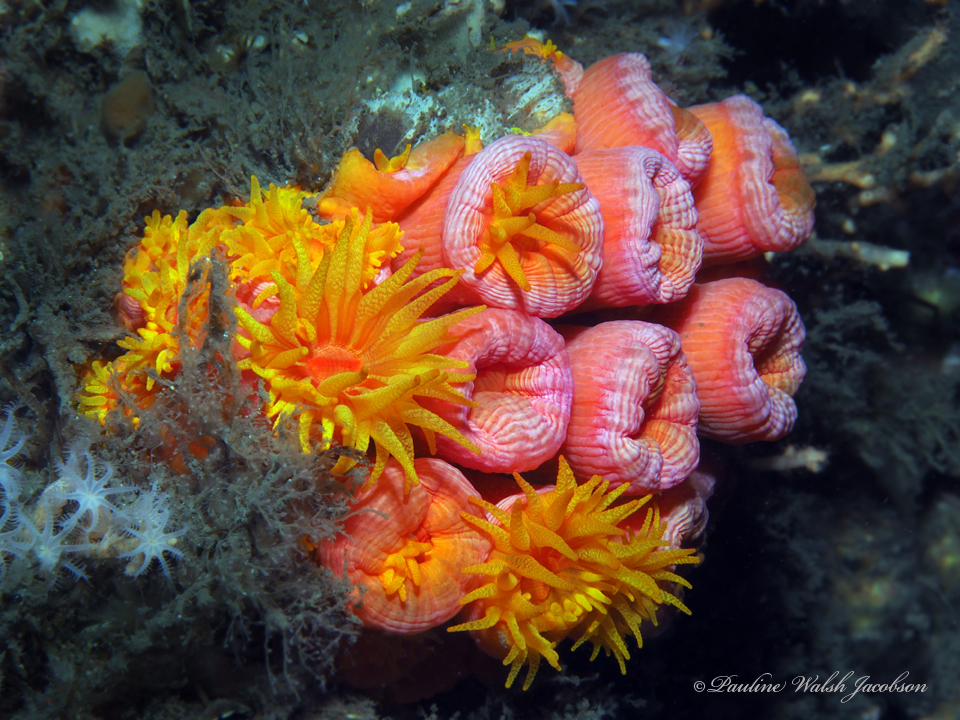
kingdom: Animalia
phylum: Cnidaria
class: Anthozoa
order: Scleractinia
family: Dendrophylliidae
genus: Tubastraea
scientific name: Tubastraea coccinea
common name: Orange cup coral
